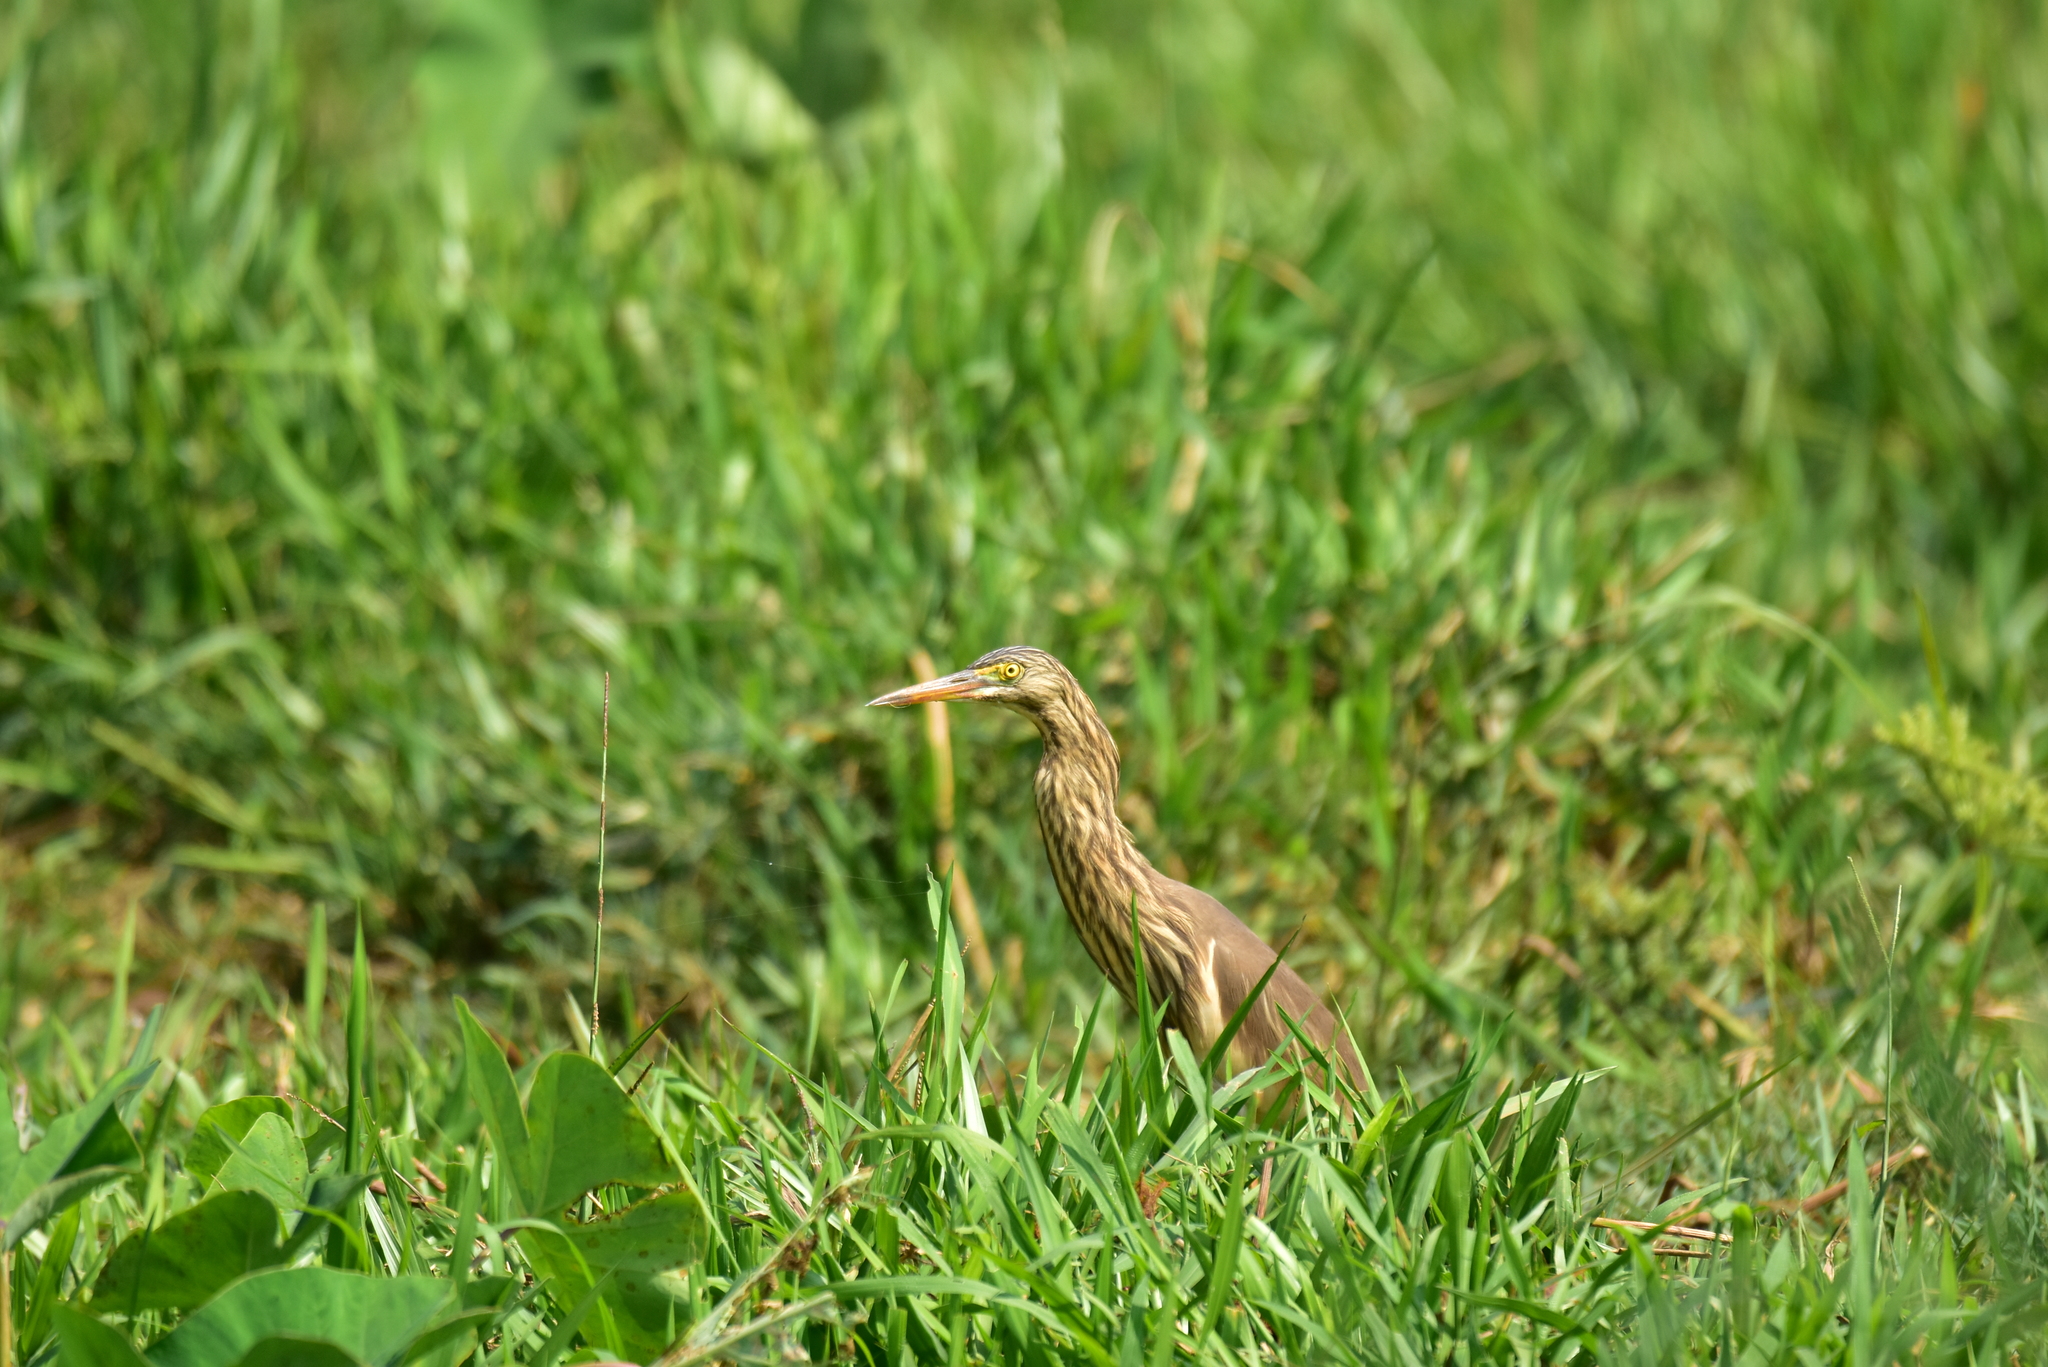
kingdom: Animalia
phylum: Chordata
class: Aves
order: Pelecaniformes
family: Ardeidae
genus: Ardeola
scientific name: Ardeola grayii
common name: Indian pond heron
